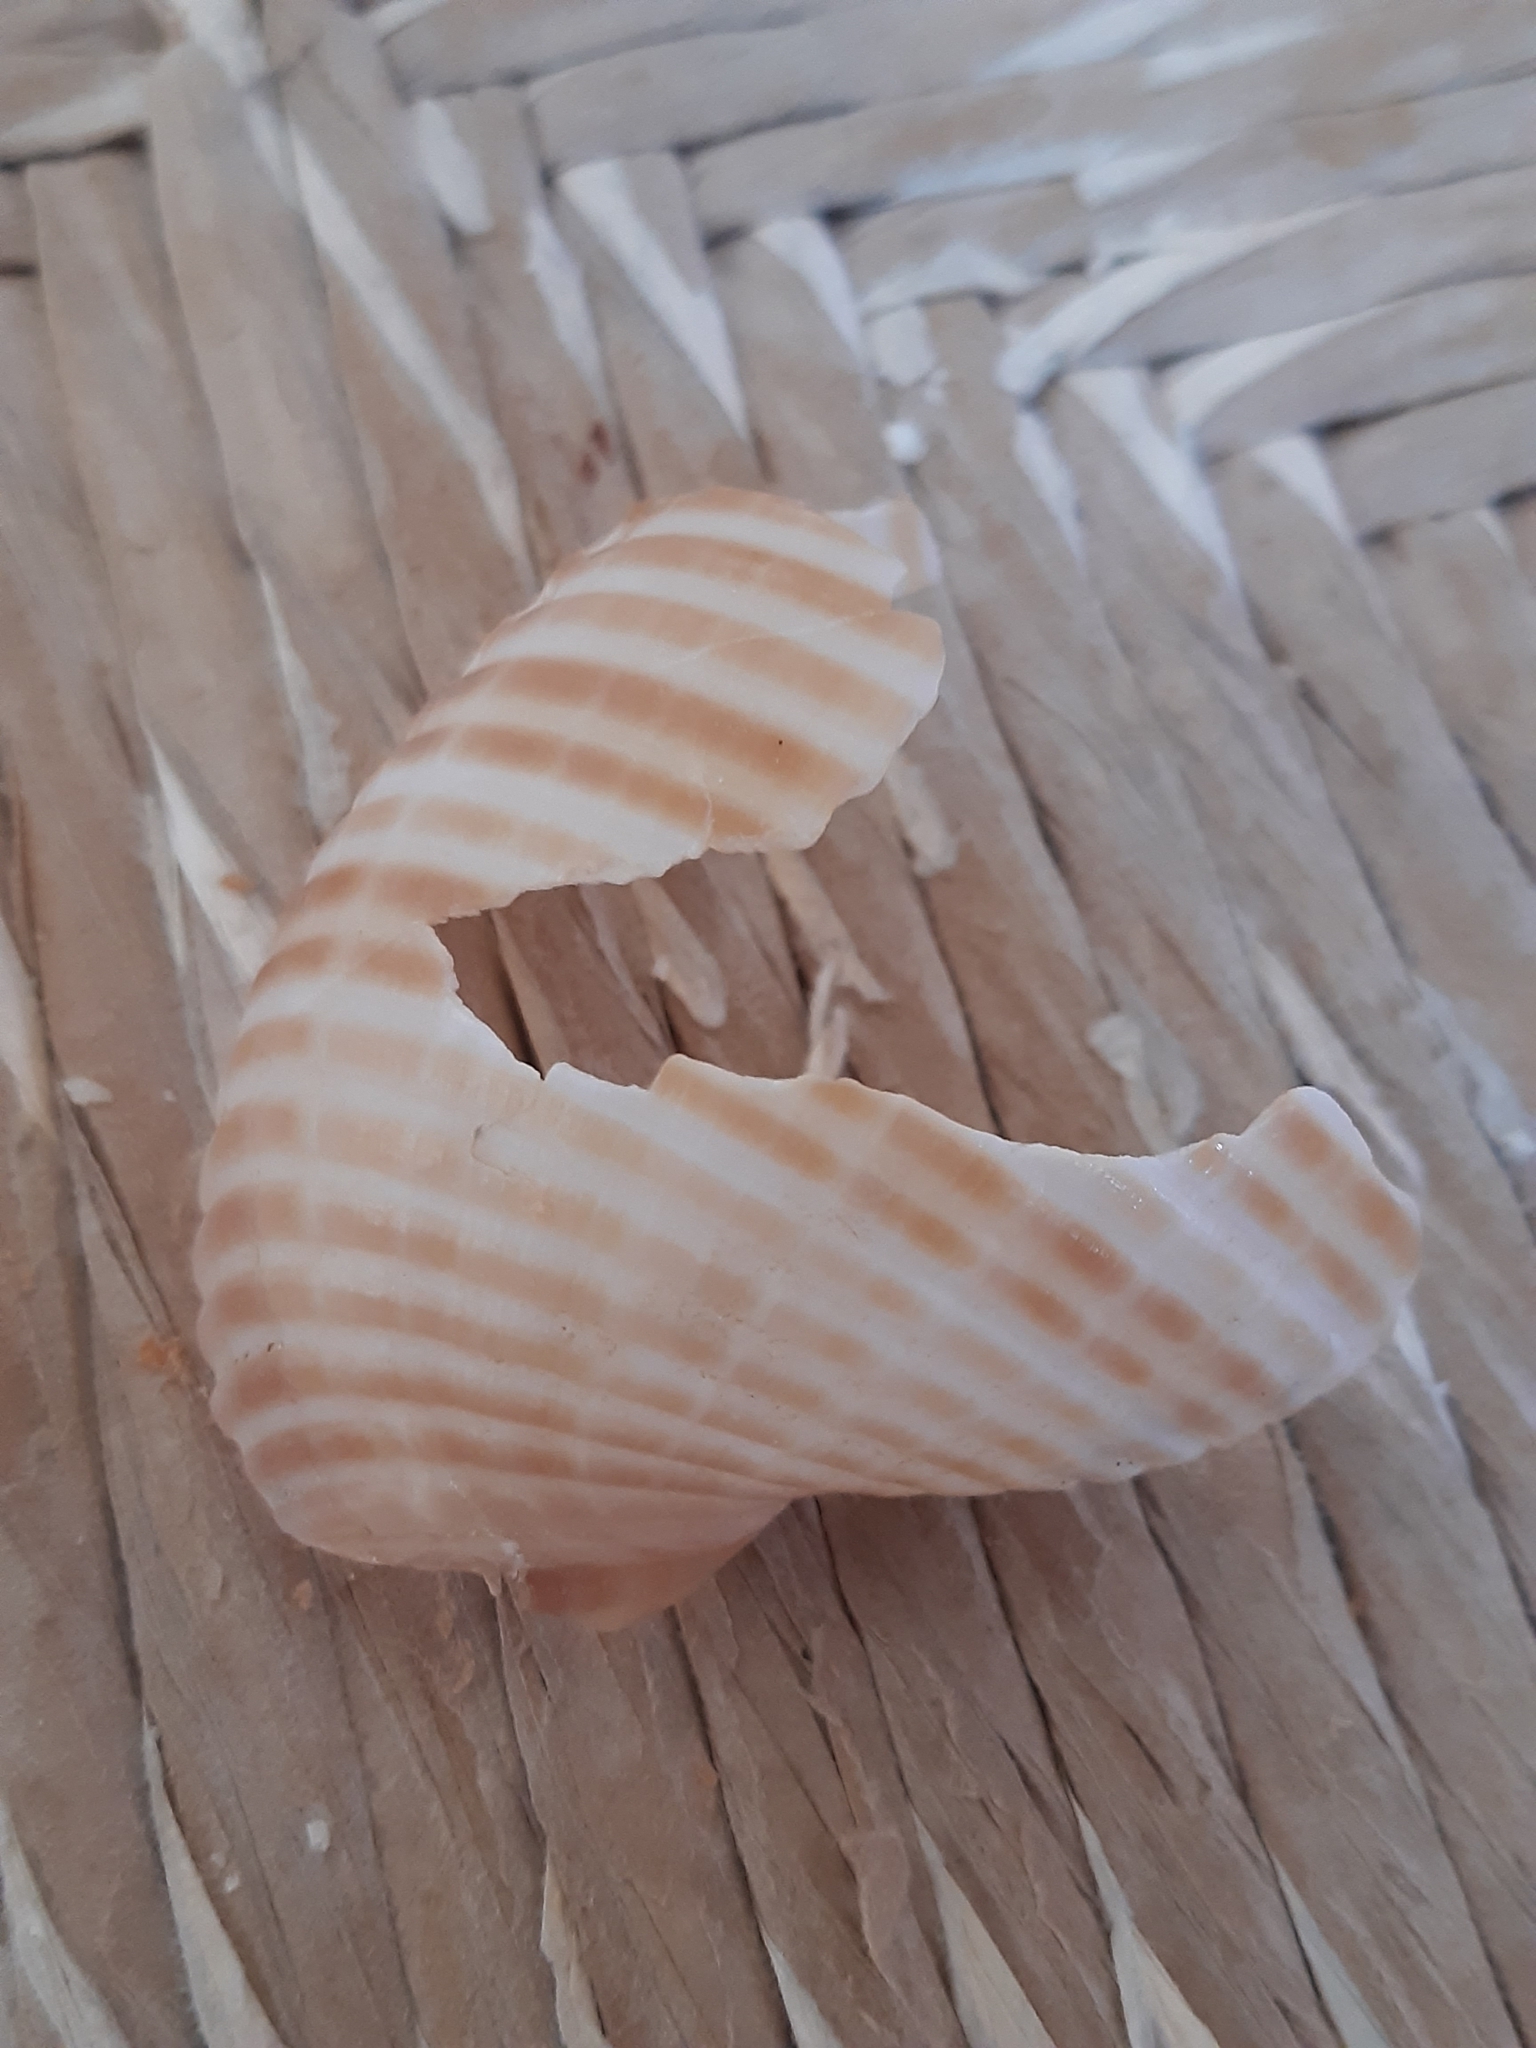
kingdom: Animalia
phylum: Mollusca
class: Gastropoda
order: Littorinimorpha
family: Tonnidae
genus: Tonna
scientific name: Tonna galea
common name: Giant tun
